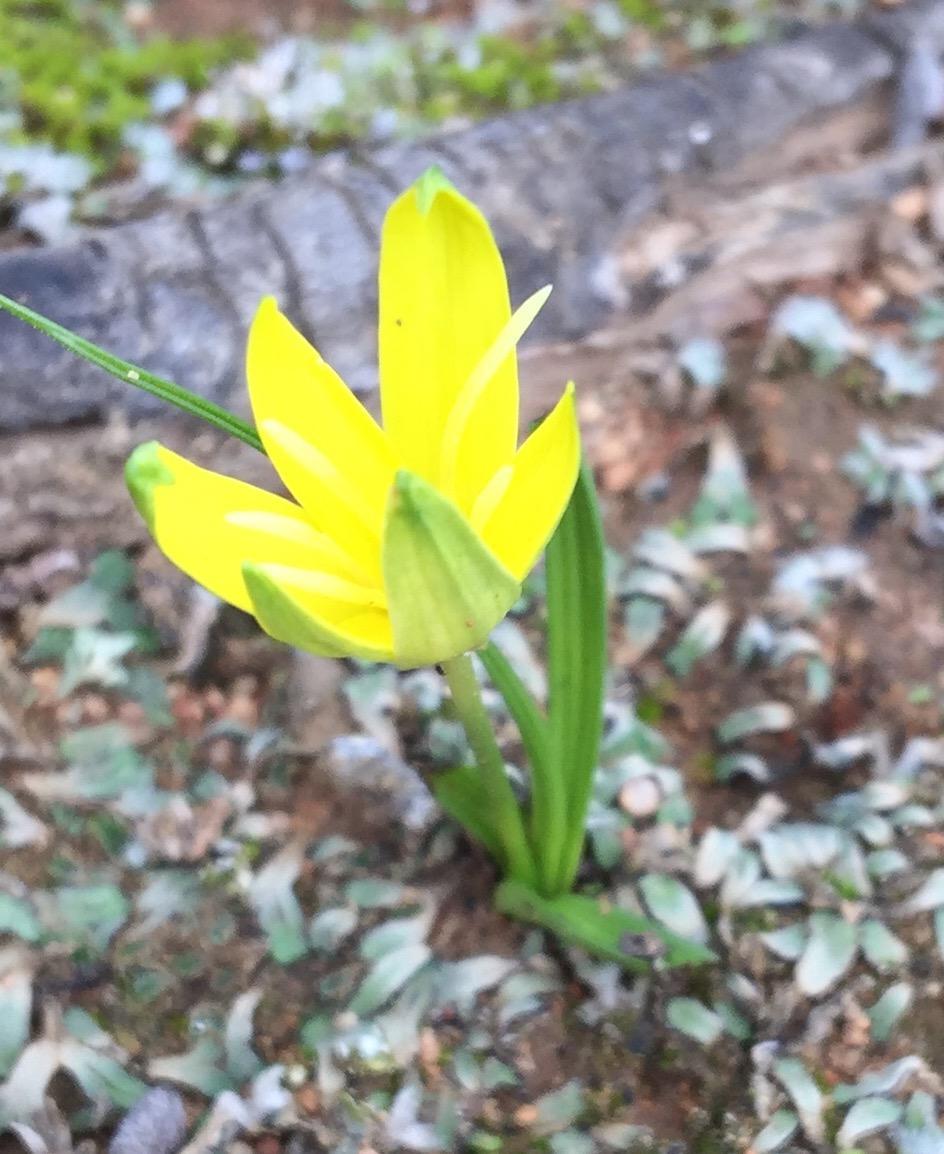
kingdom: Plantae
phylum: Tracheophyta
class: Liliopsida
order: Asparagales
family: Hypoxidaceae
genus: Empodium
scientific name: Empodium flexile
